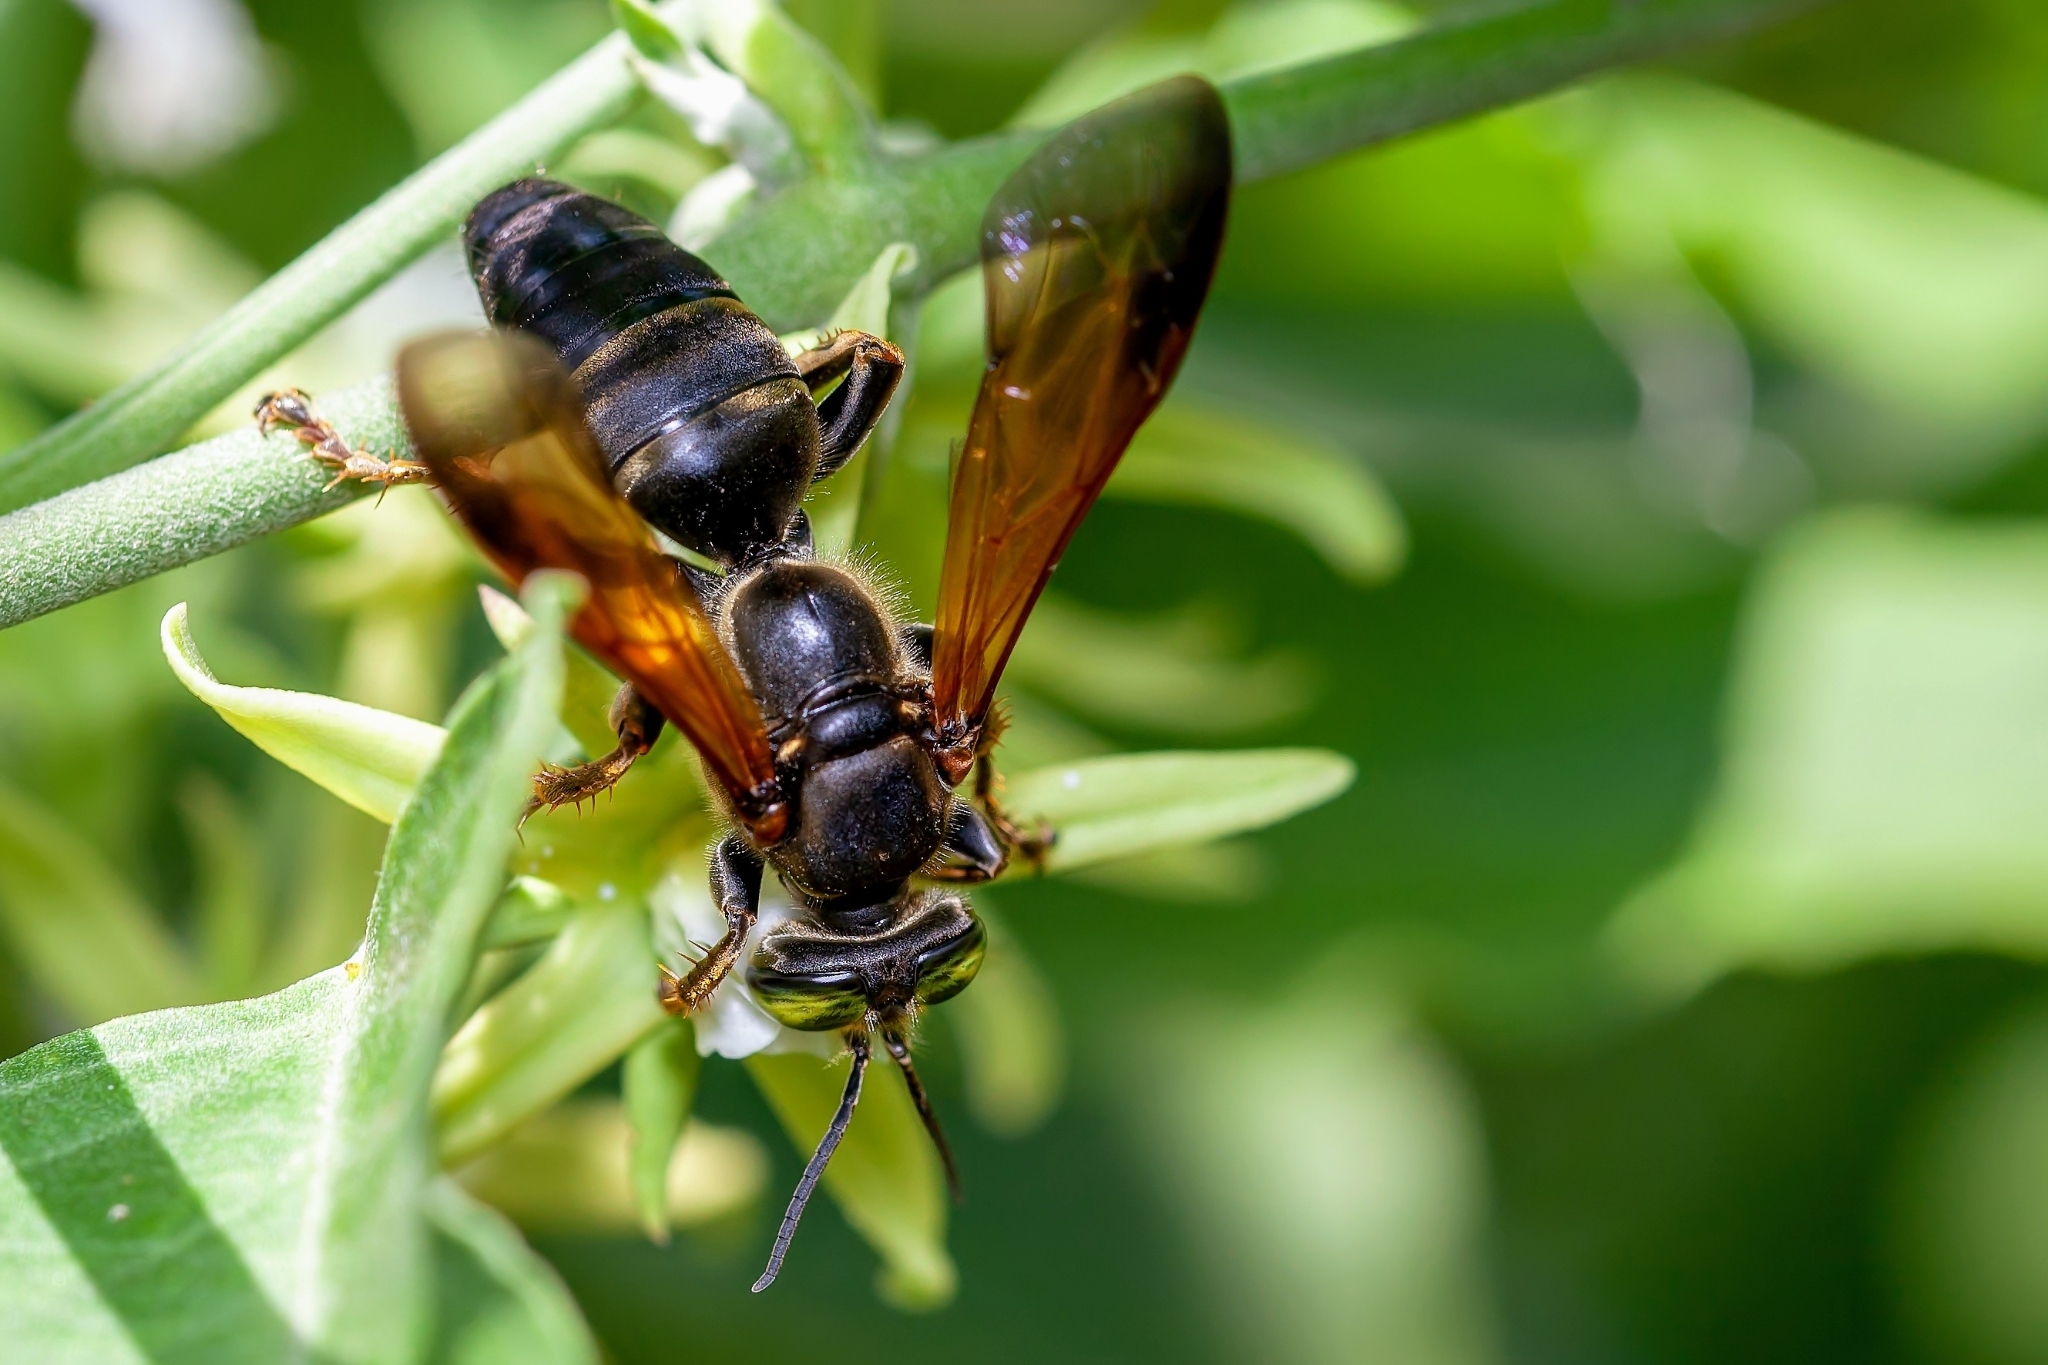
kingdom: Animalia
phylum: Arthropoda
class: Insecta
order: Hymenoptera
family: Crabronidae
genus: Tachytes
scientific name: Tachytes guatemalensis
